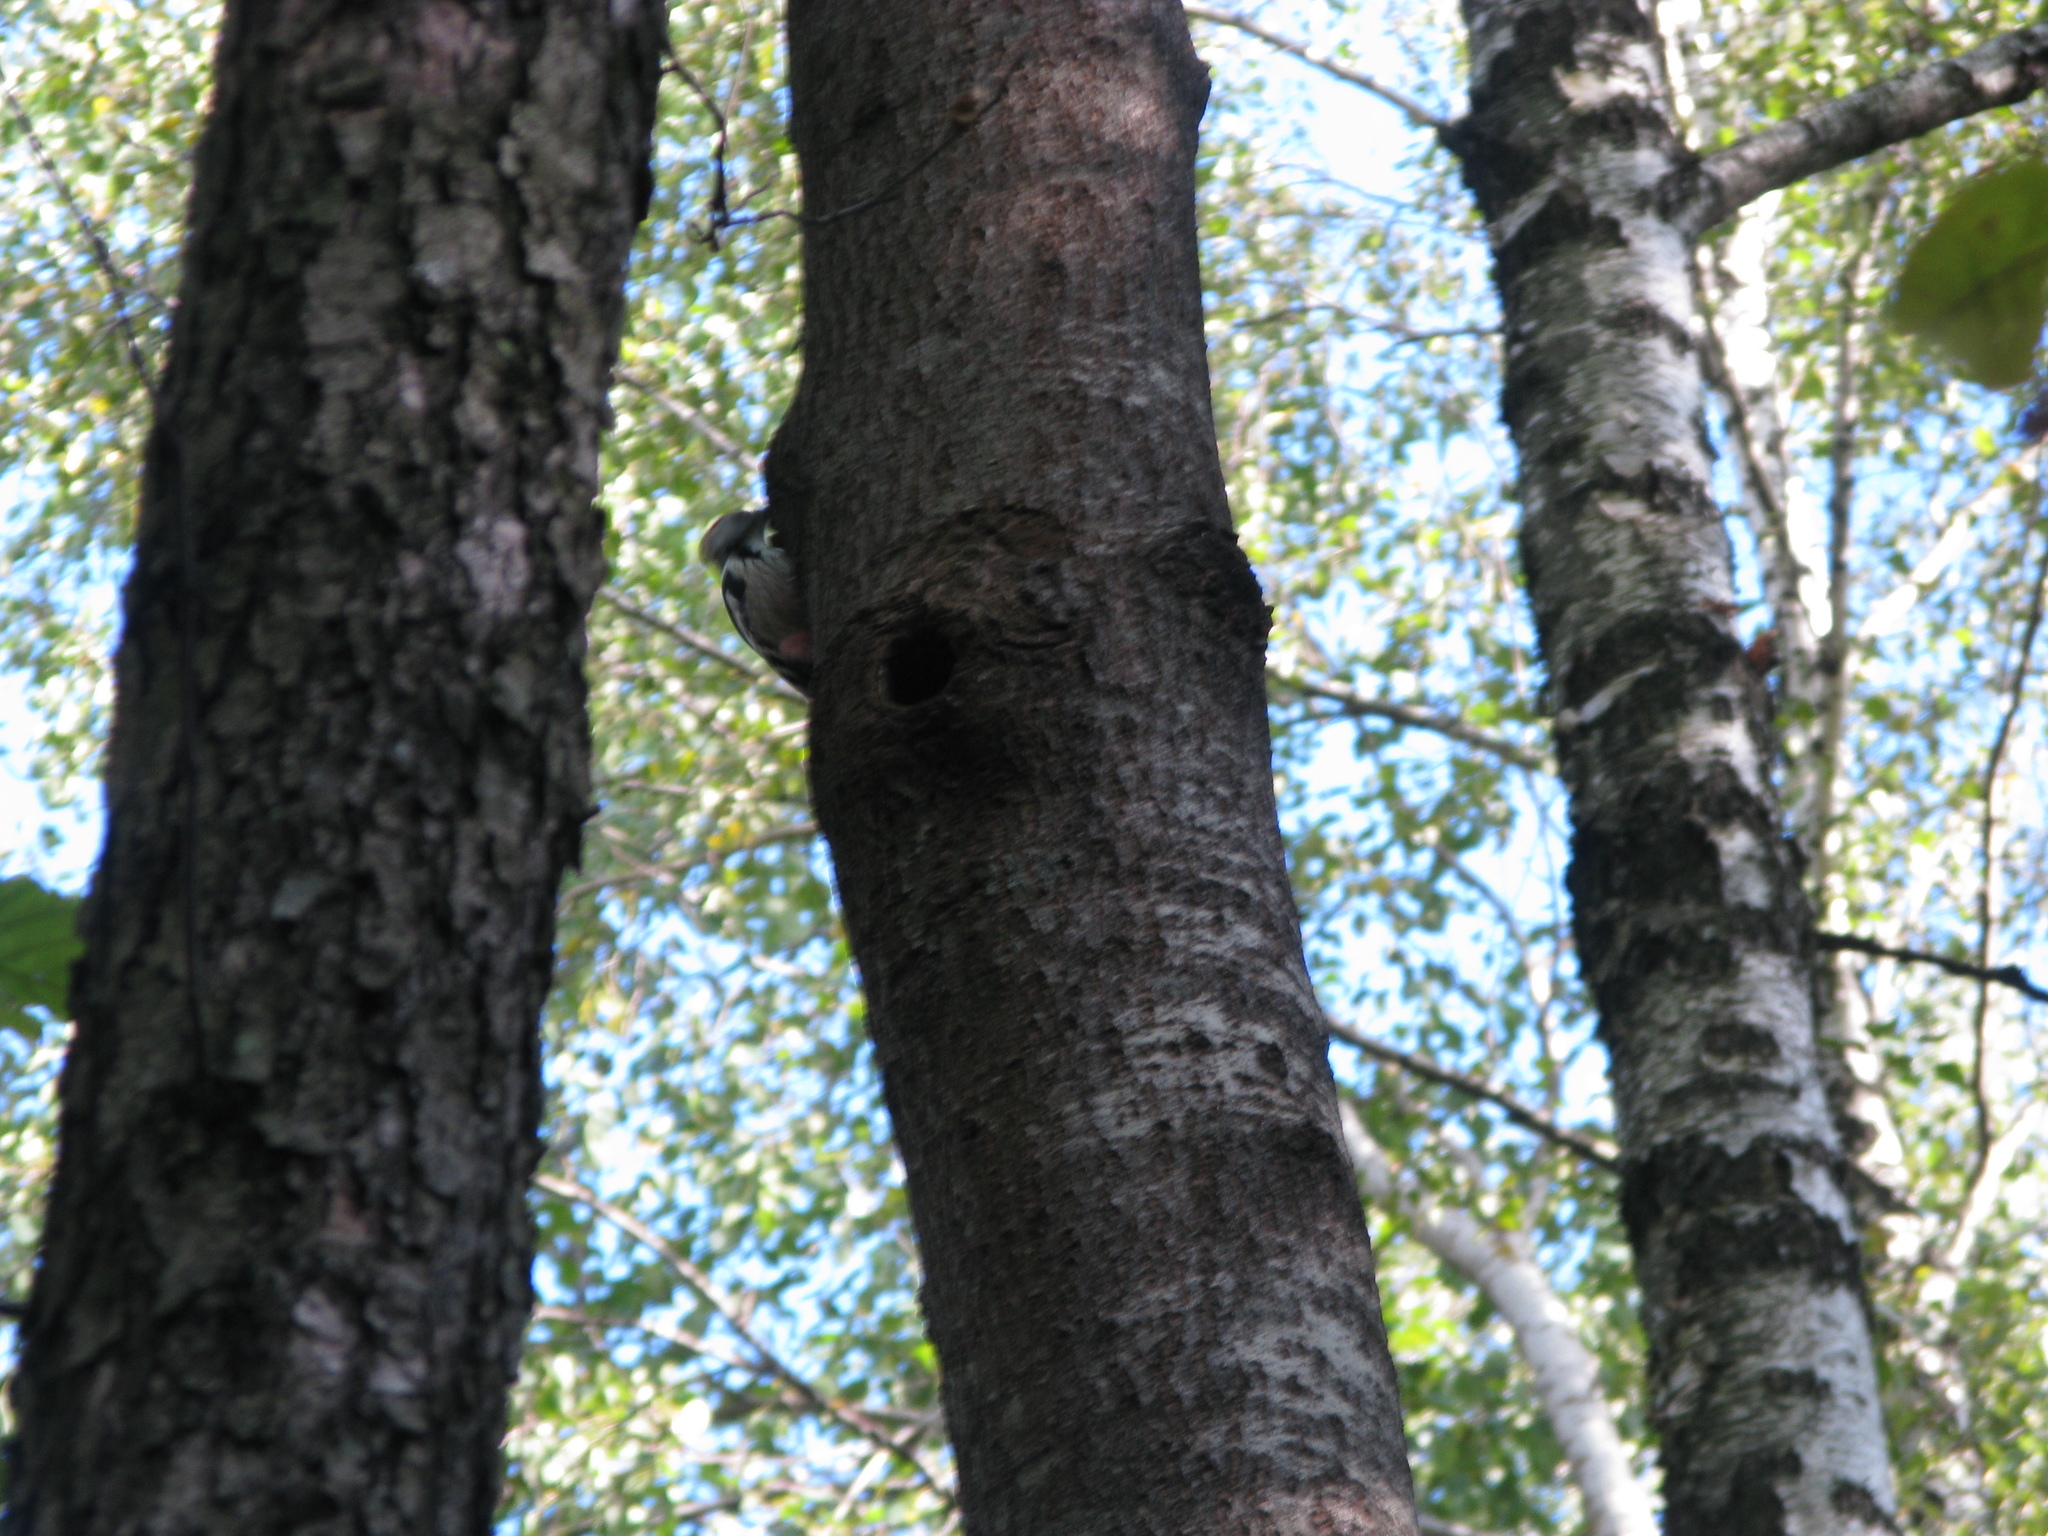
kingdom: Animalia
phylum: Chordata
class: Aves
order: Piciformes
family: Picidae
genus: Dendrocoptes
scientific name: Dendrocoptes medius
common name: Middle spotted woodpecker
